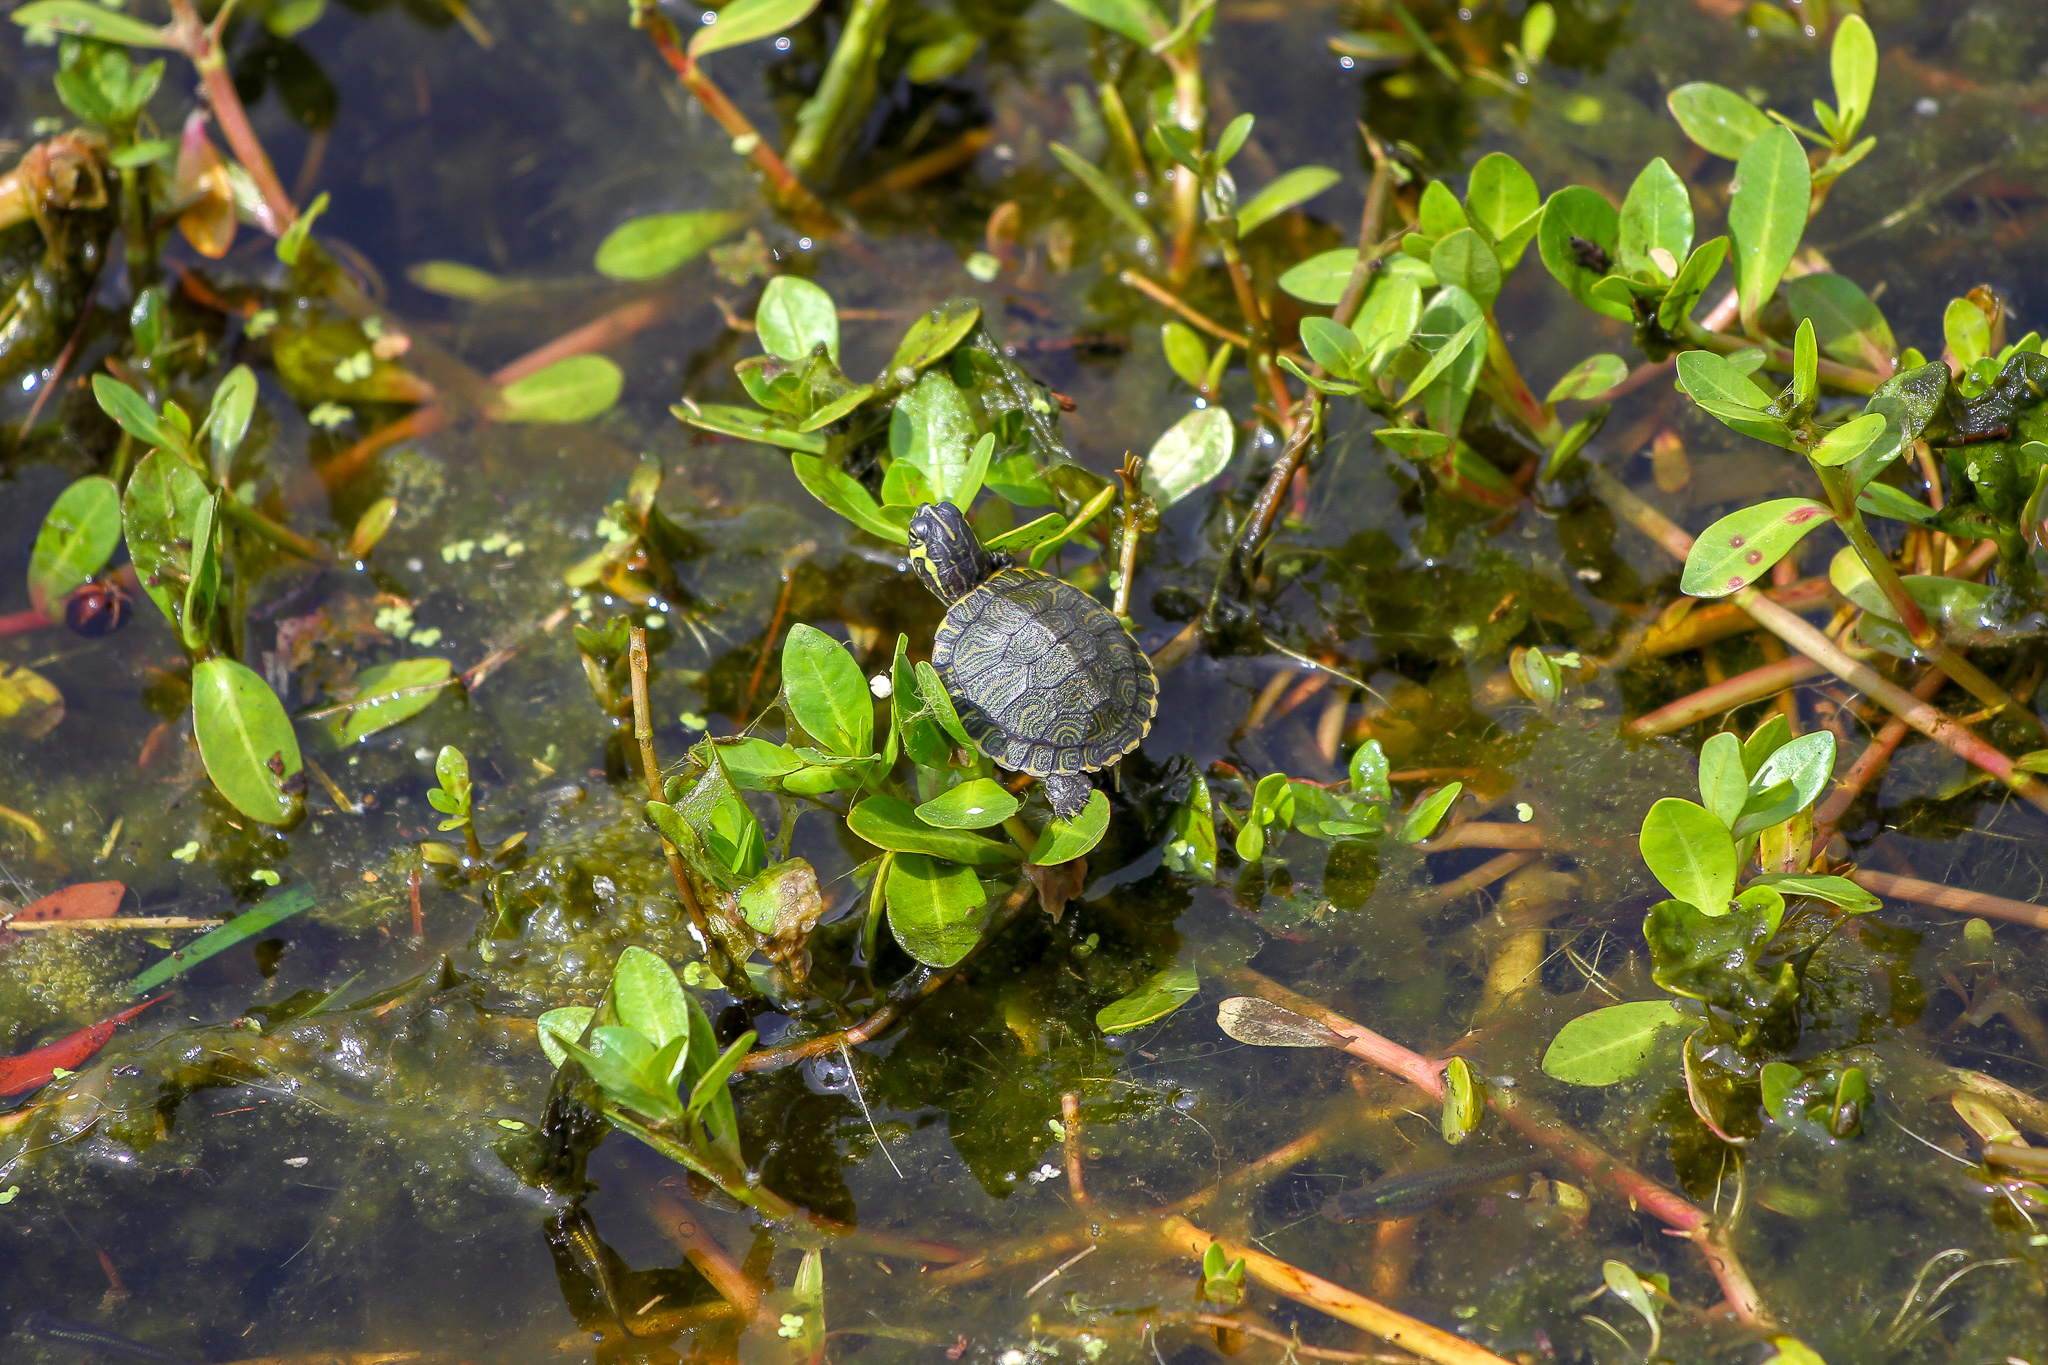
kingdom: Animalia
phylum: Chordata
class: Testudines
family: Emydidae
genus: Trachemys
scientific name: Trachemys scripta
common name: Slider
